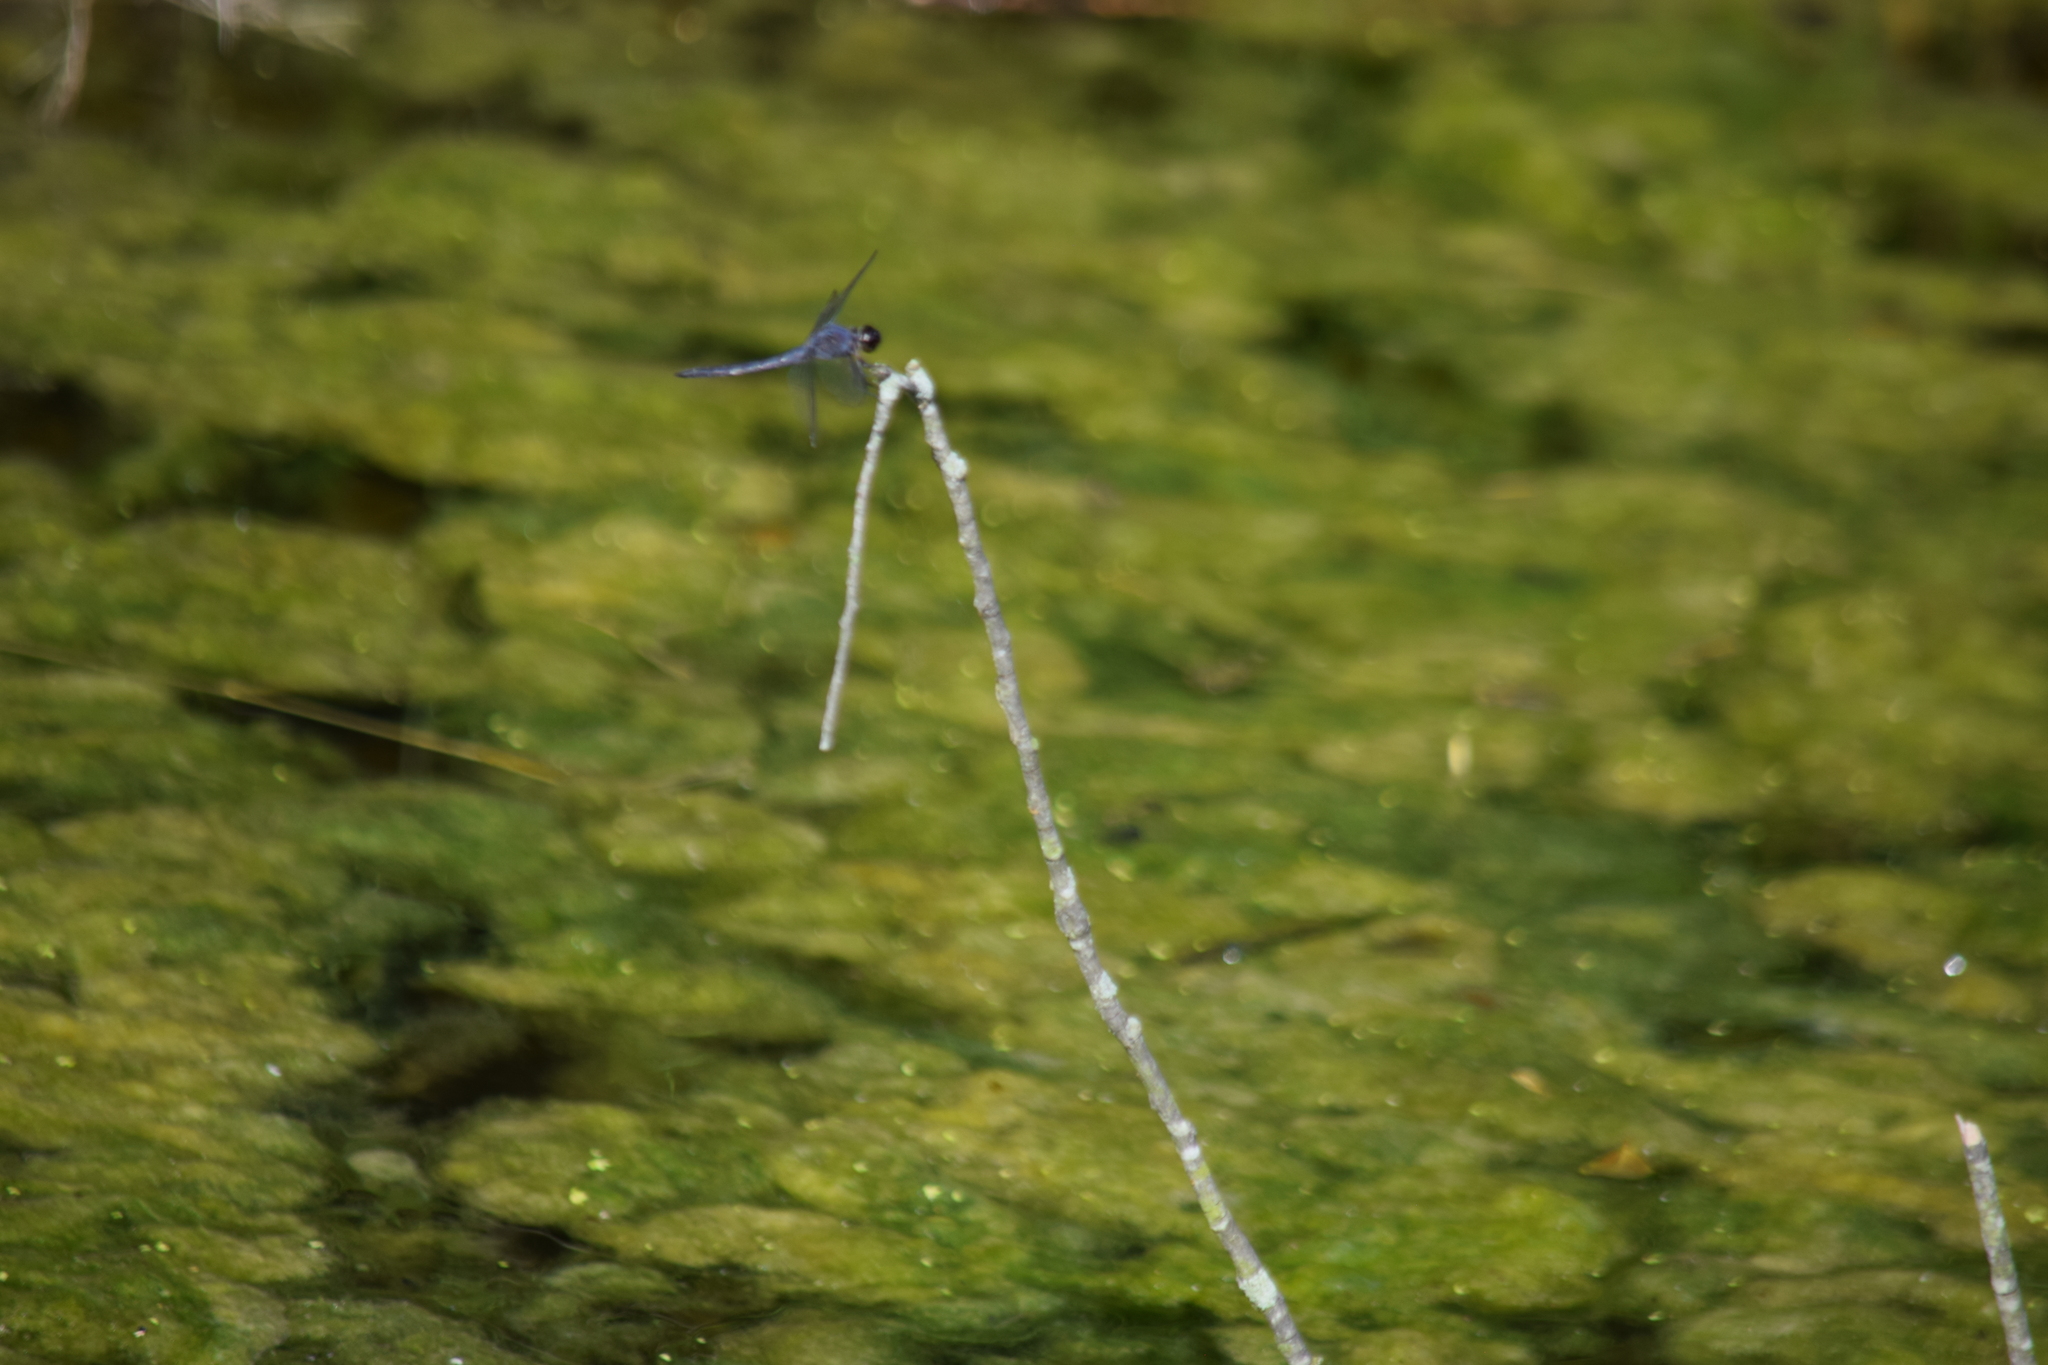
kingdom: Animalia
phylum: Arthropoda
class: Insecta
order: Odonata
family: Libellulidae
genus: Libellula
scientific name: Libellula incesta
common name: Slaty skimmer
